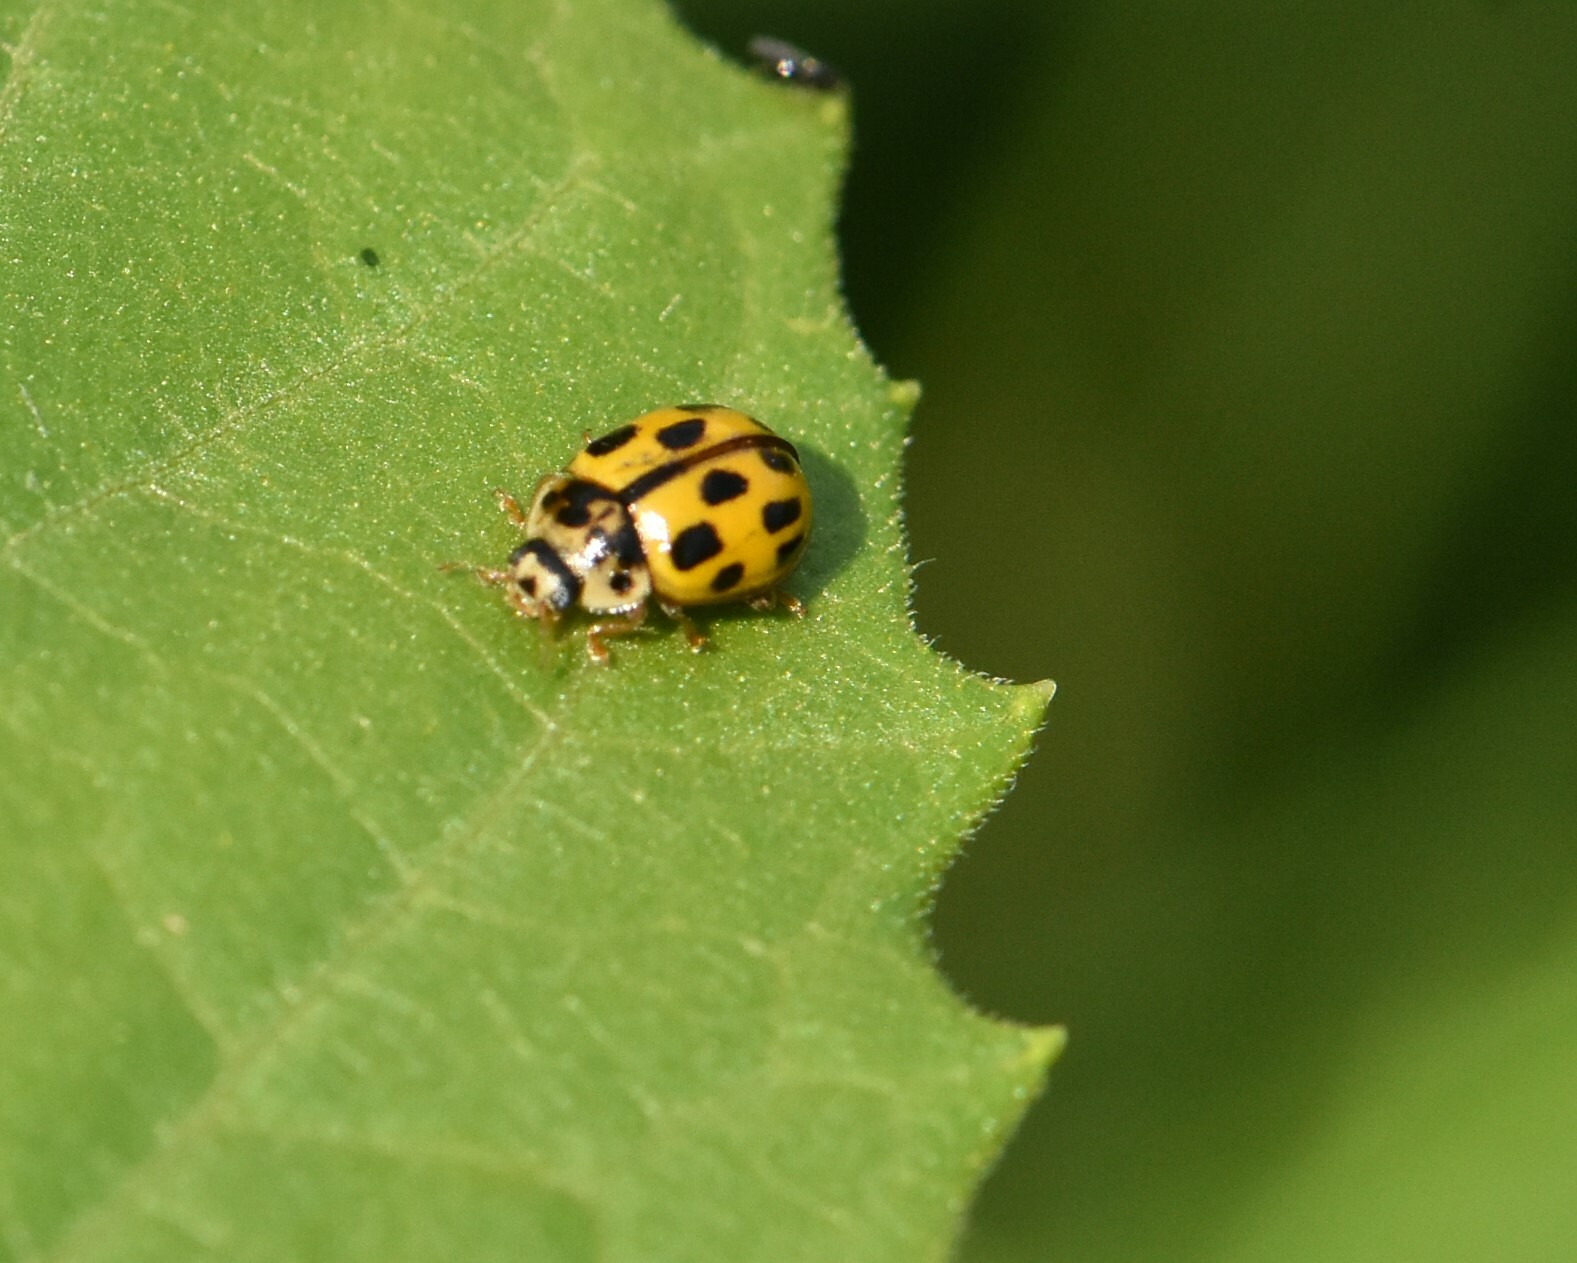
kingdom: Animalia
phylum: Arthropoda
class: Insecta
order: Coleoptera
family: Coccinellidae
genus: Propylaea
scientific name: Propylaea quatuordecimpunctata
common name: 14-spotted ladybird beetle
